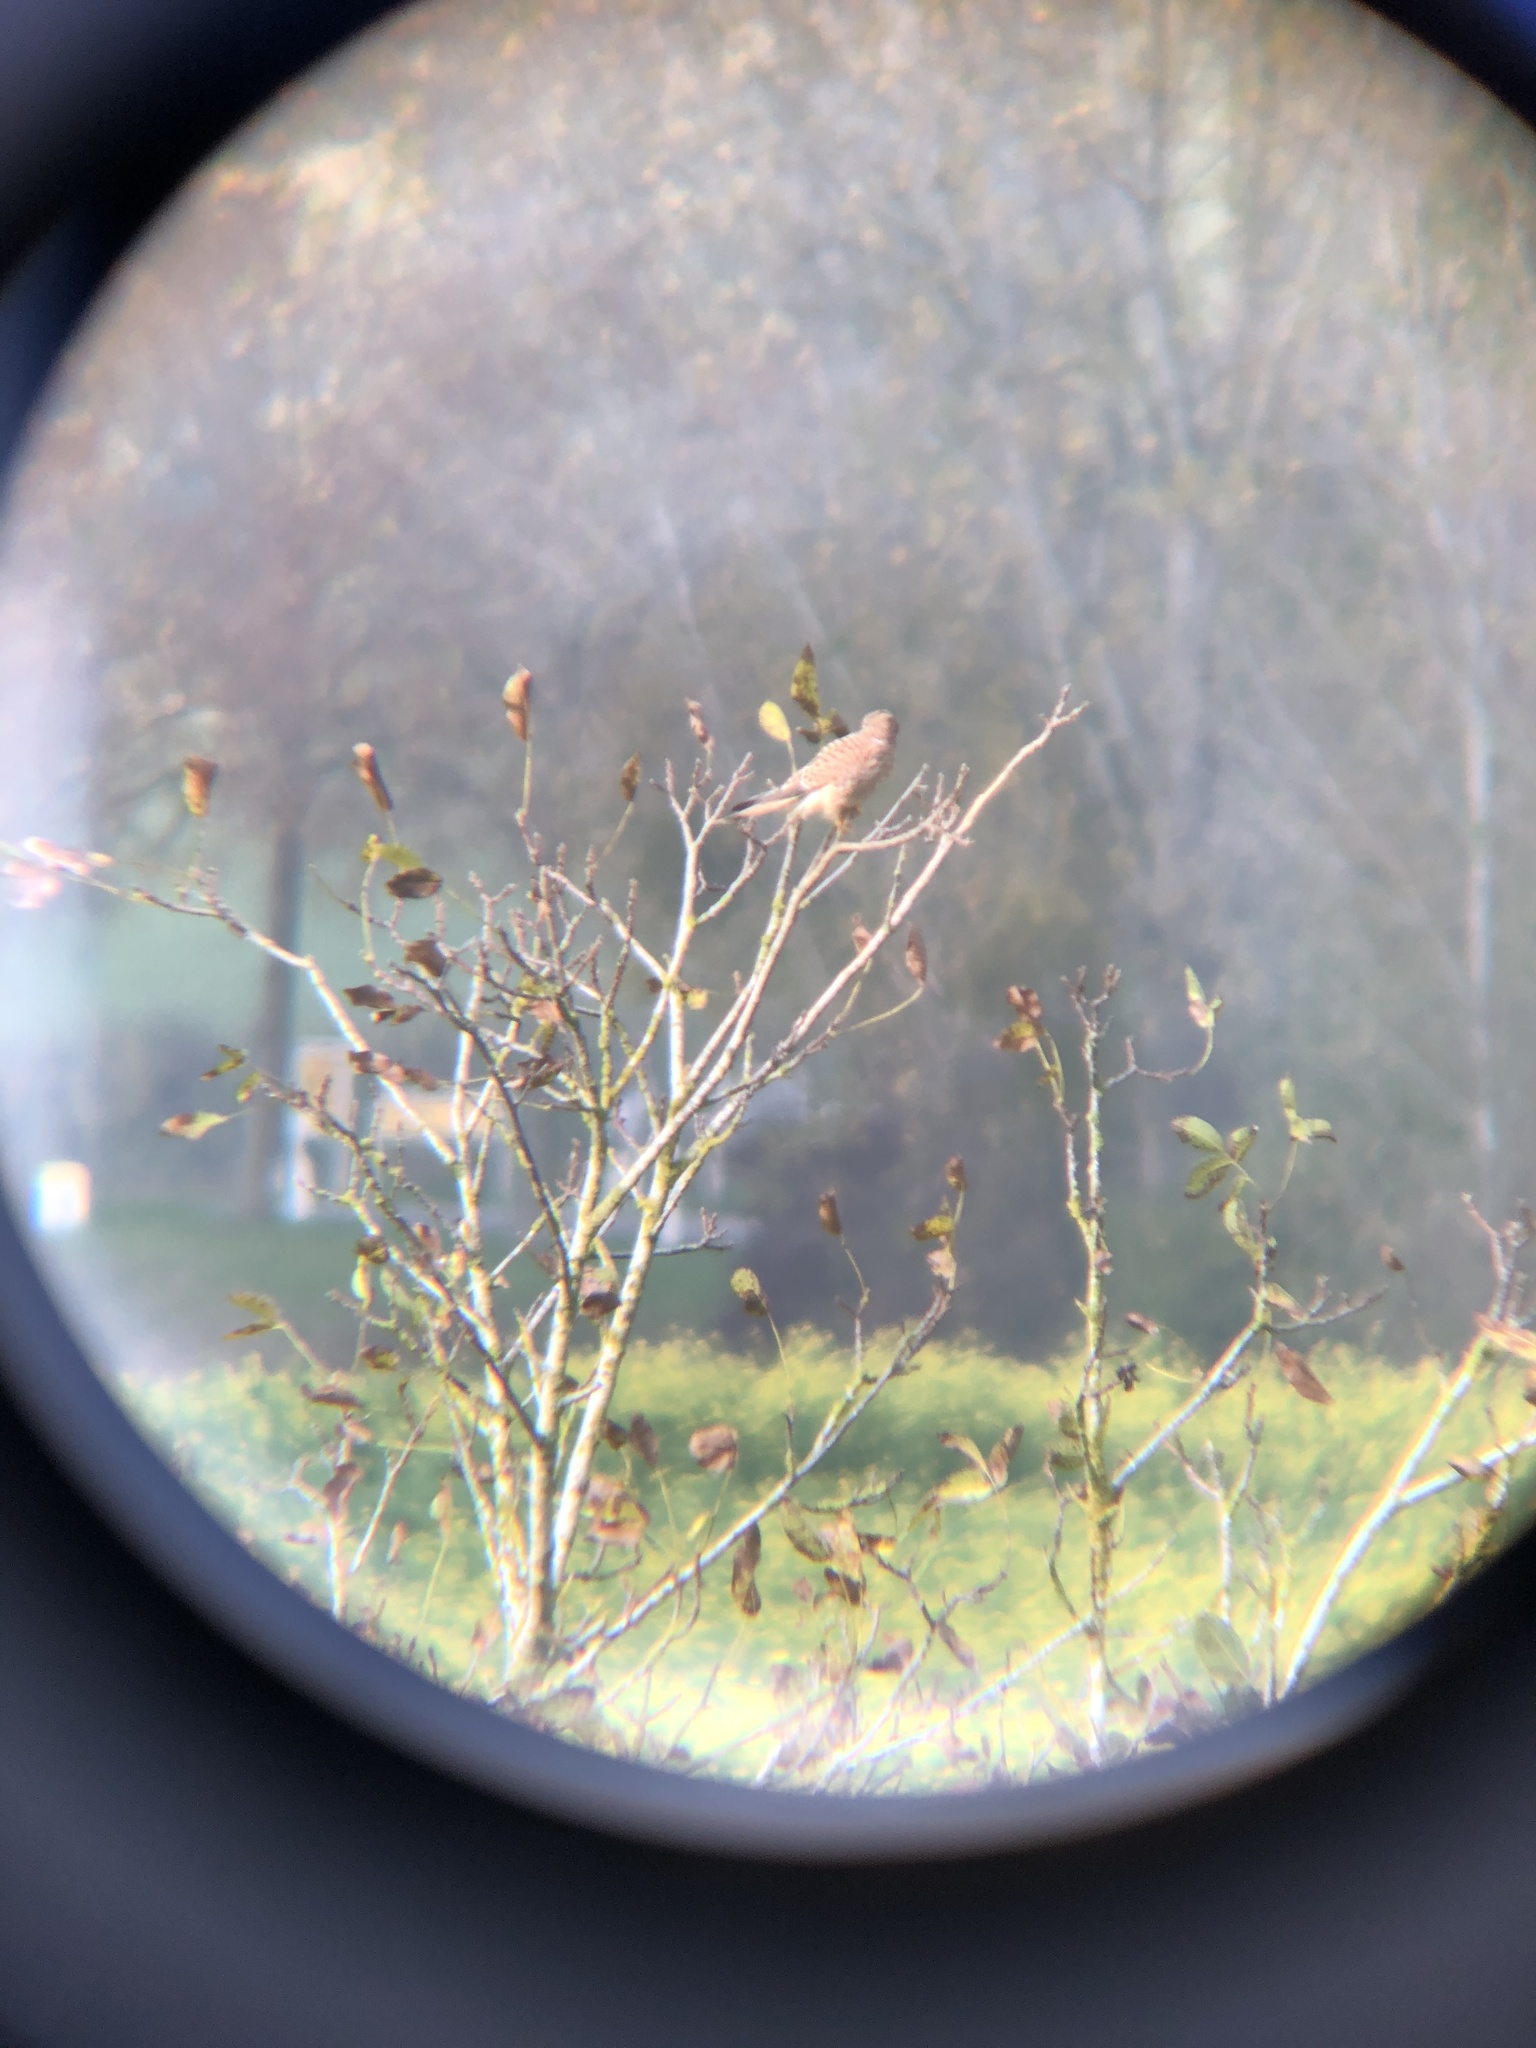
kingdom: Animalia
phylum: Chordata
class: Aves
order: Falconiformes
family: Falconidae
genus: Falco
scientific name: Falco tinnunculus
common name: Common kestrel
